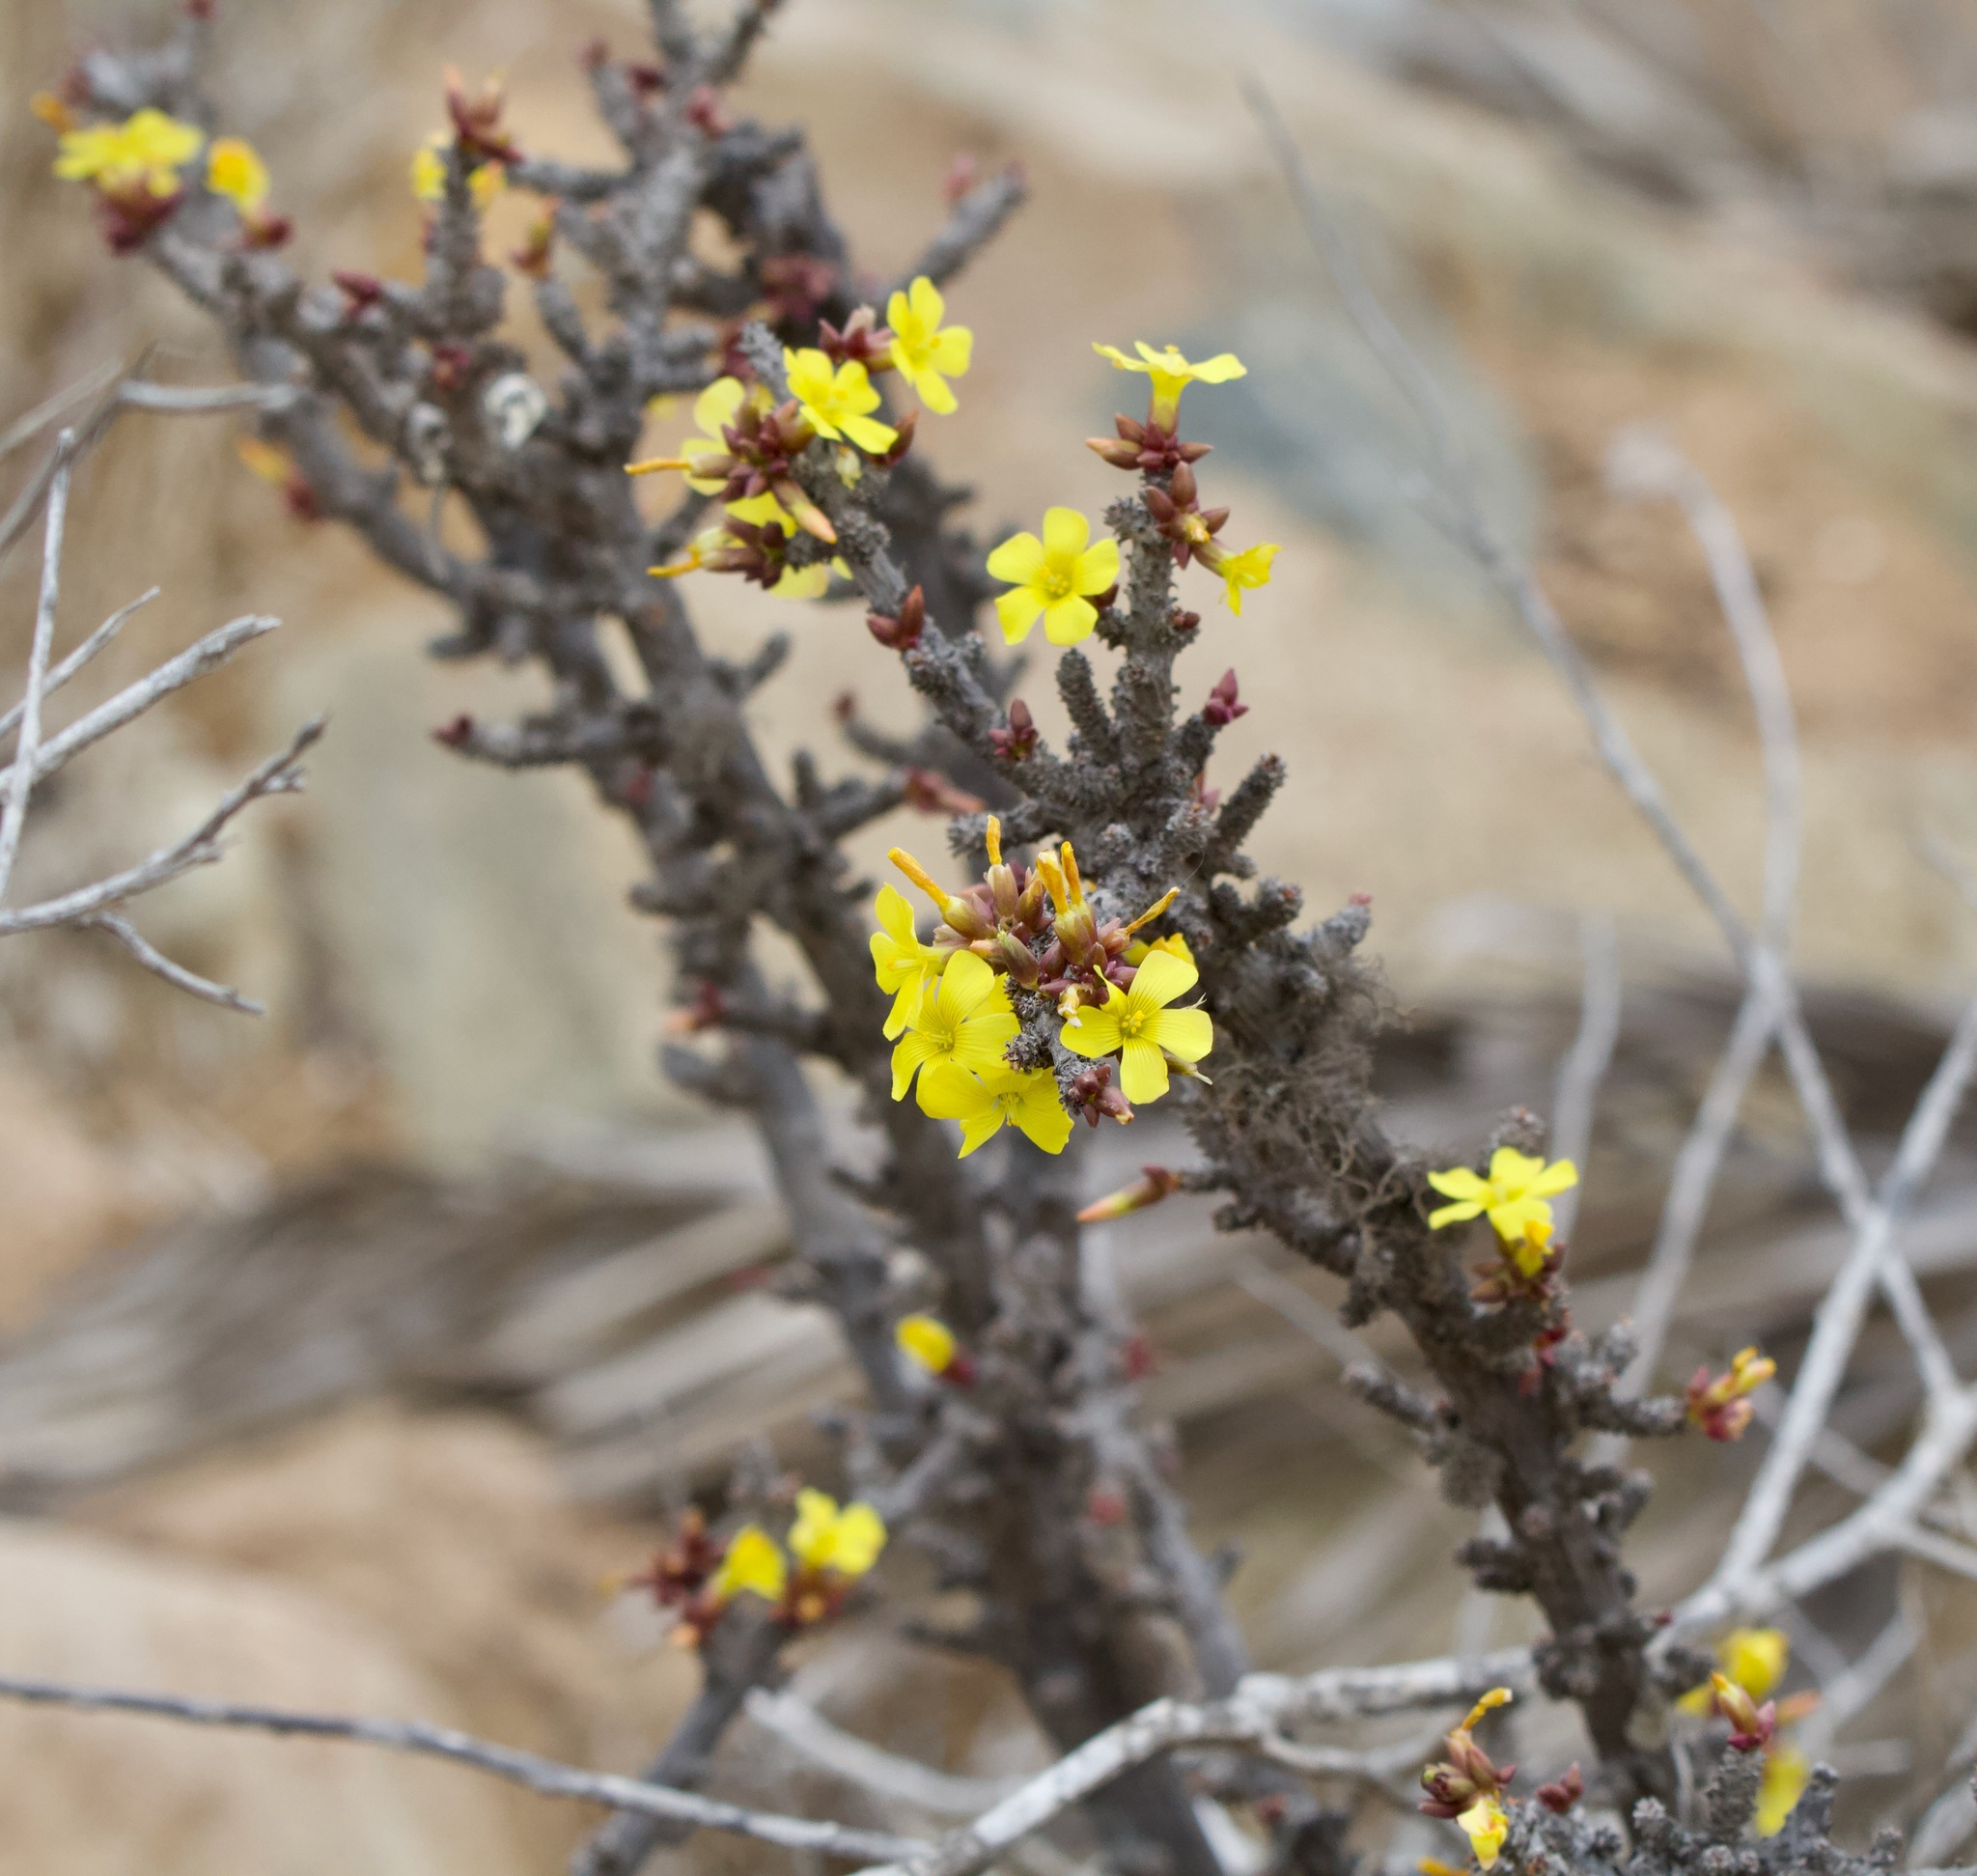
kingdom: Plantae
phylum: Tracheophyta
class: Magnoliopsida
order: Oxalidales
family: Oxalidaceae
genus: Oxalis
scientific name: Oxalis gigantea
